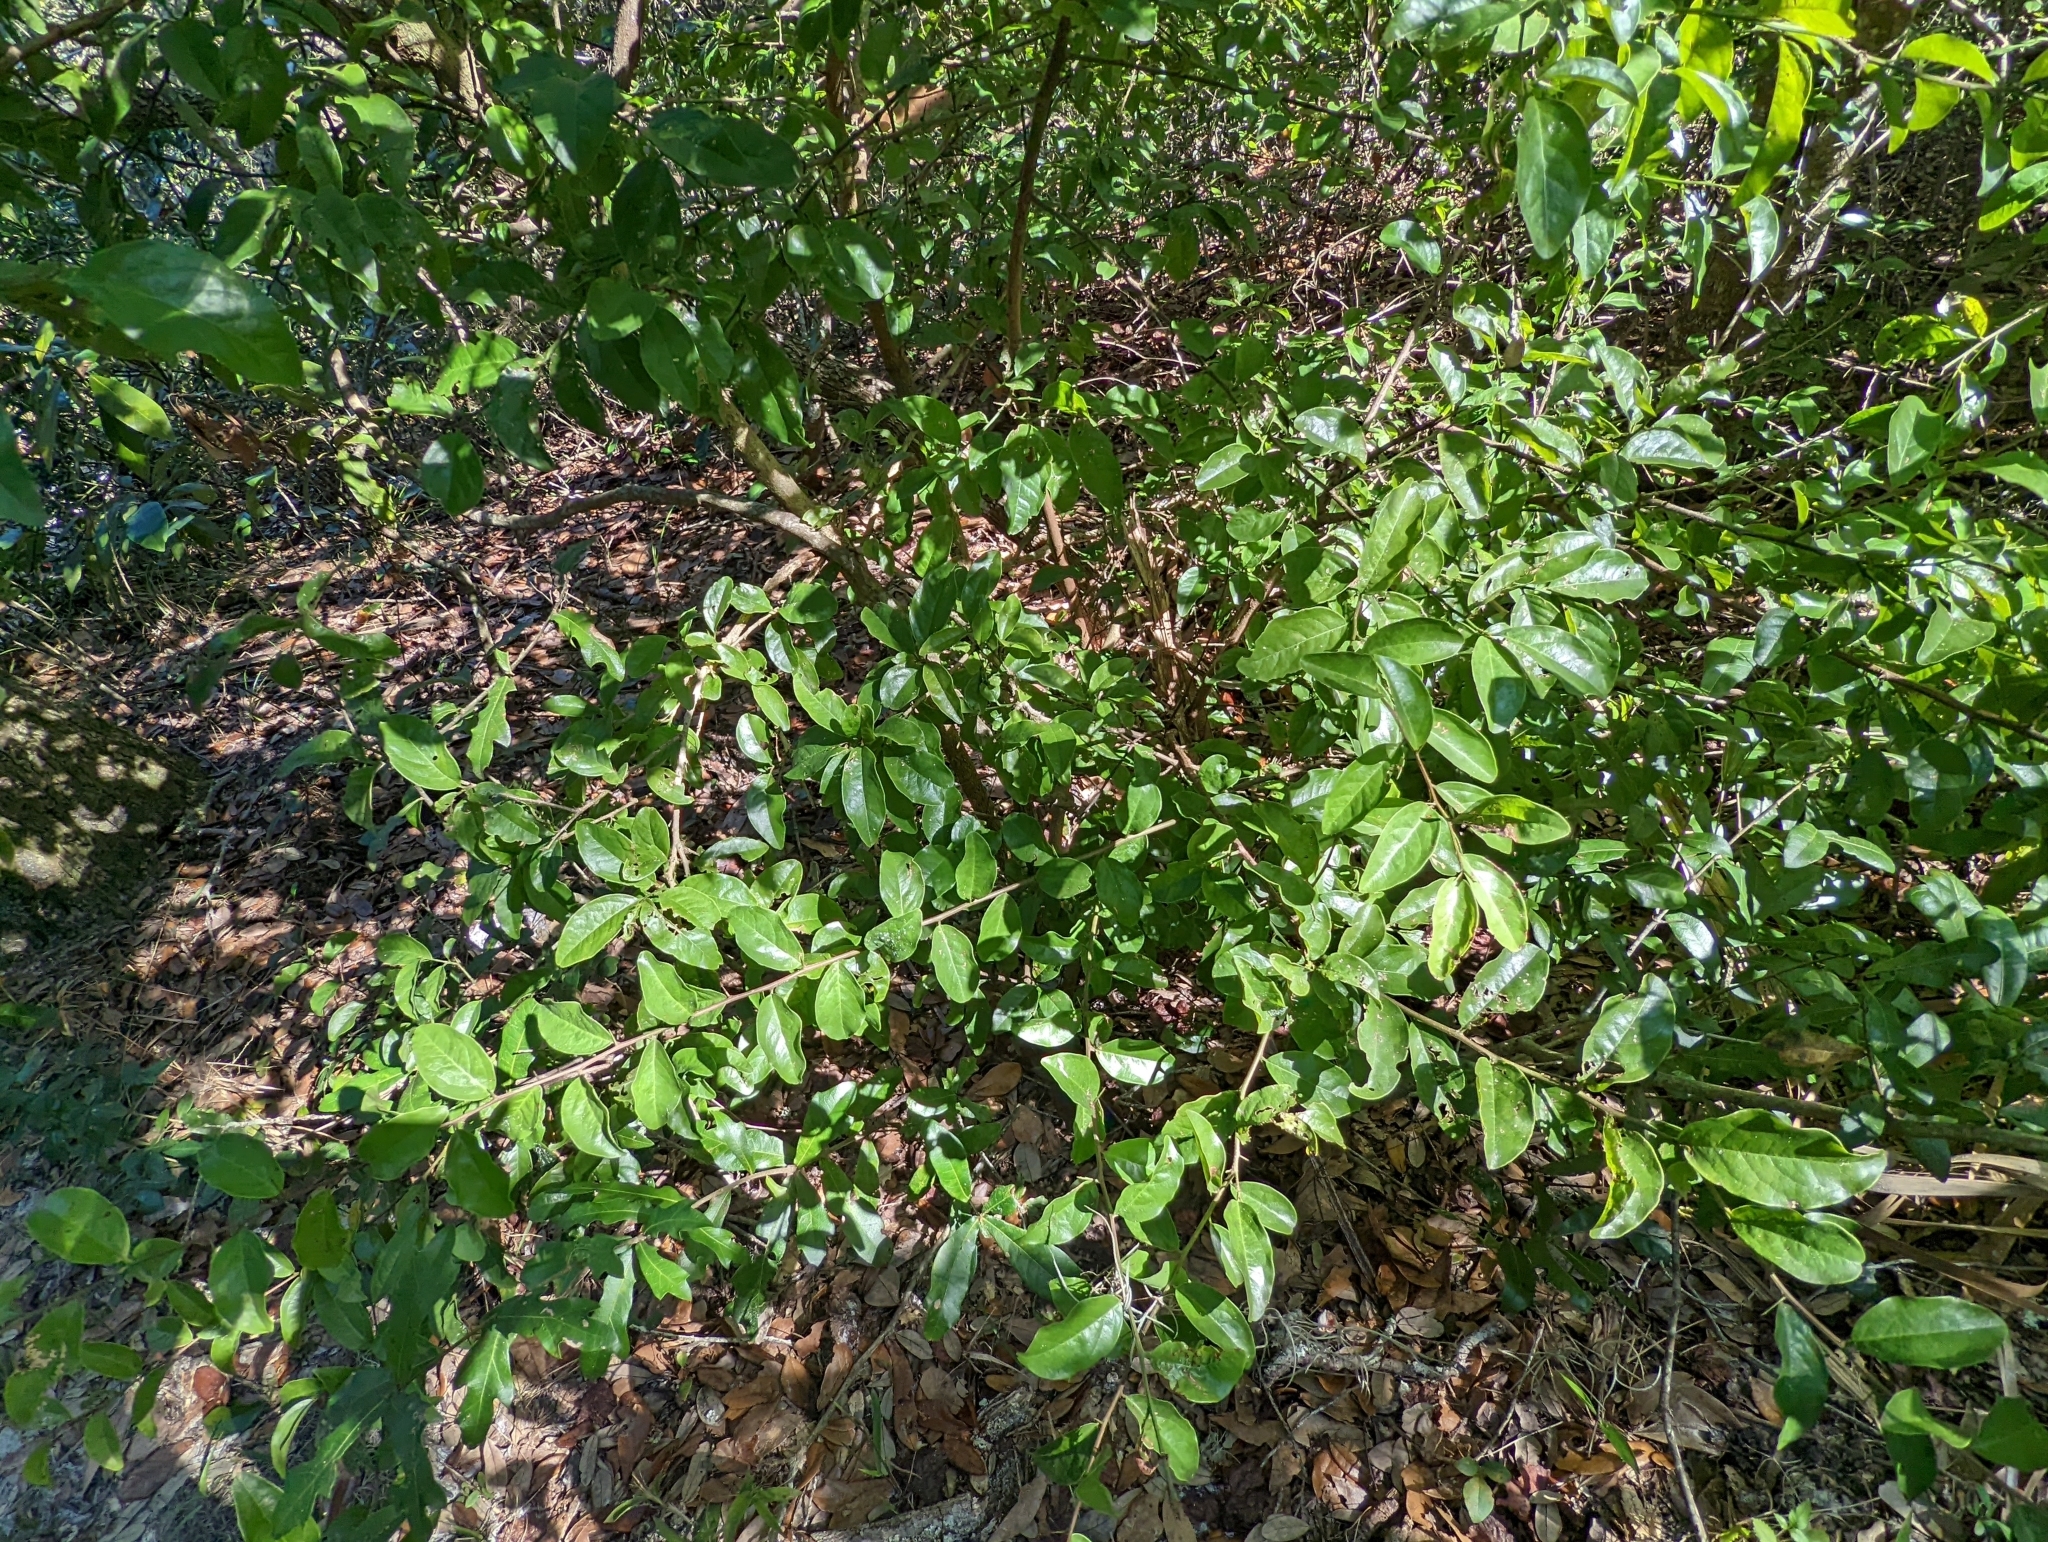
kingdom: Plantae
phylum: Tracheophyta
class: Magnoliopsida
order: Santalales
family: Ximeniaceae
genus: Ximenia
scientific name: Ximenia americana
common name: Tallowwood
